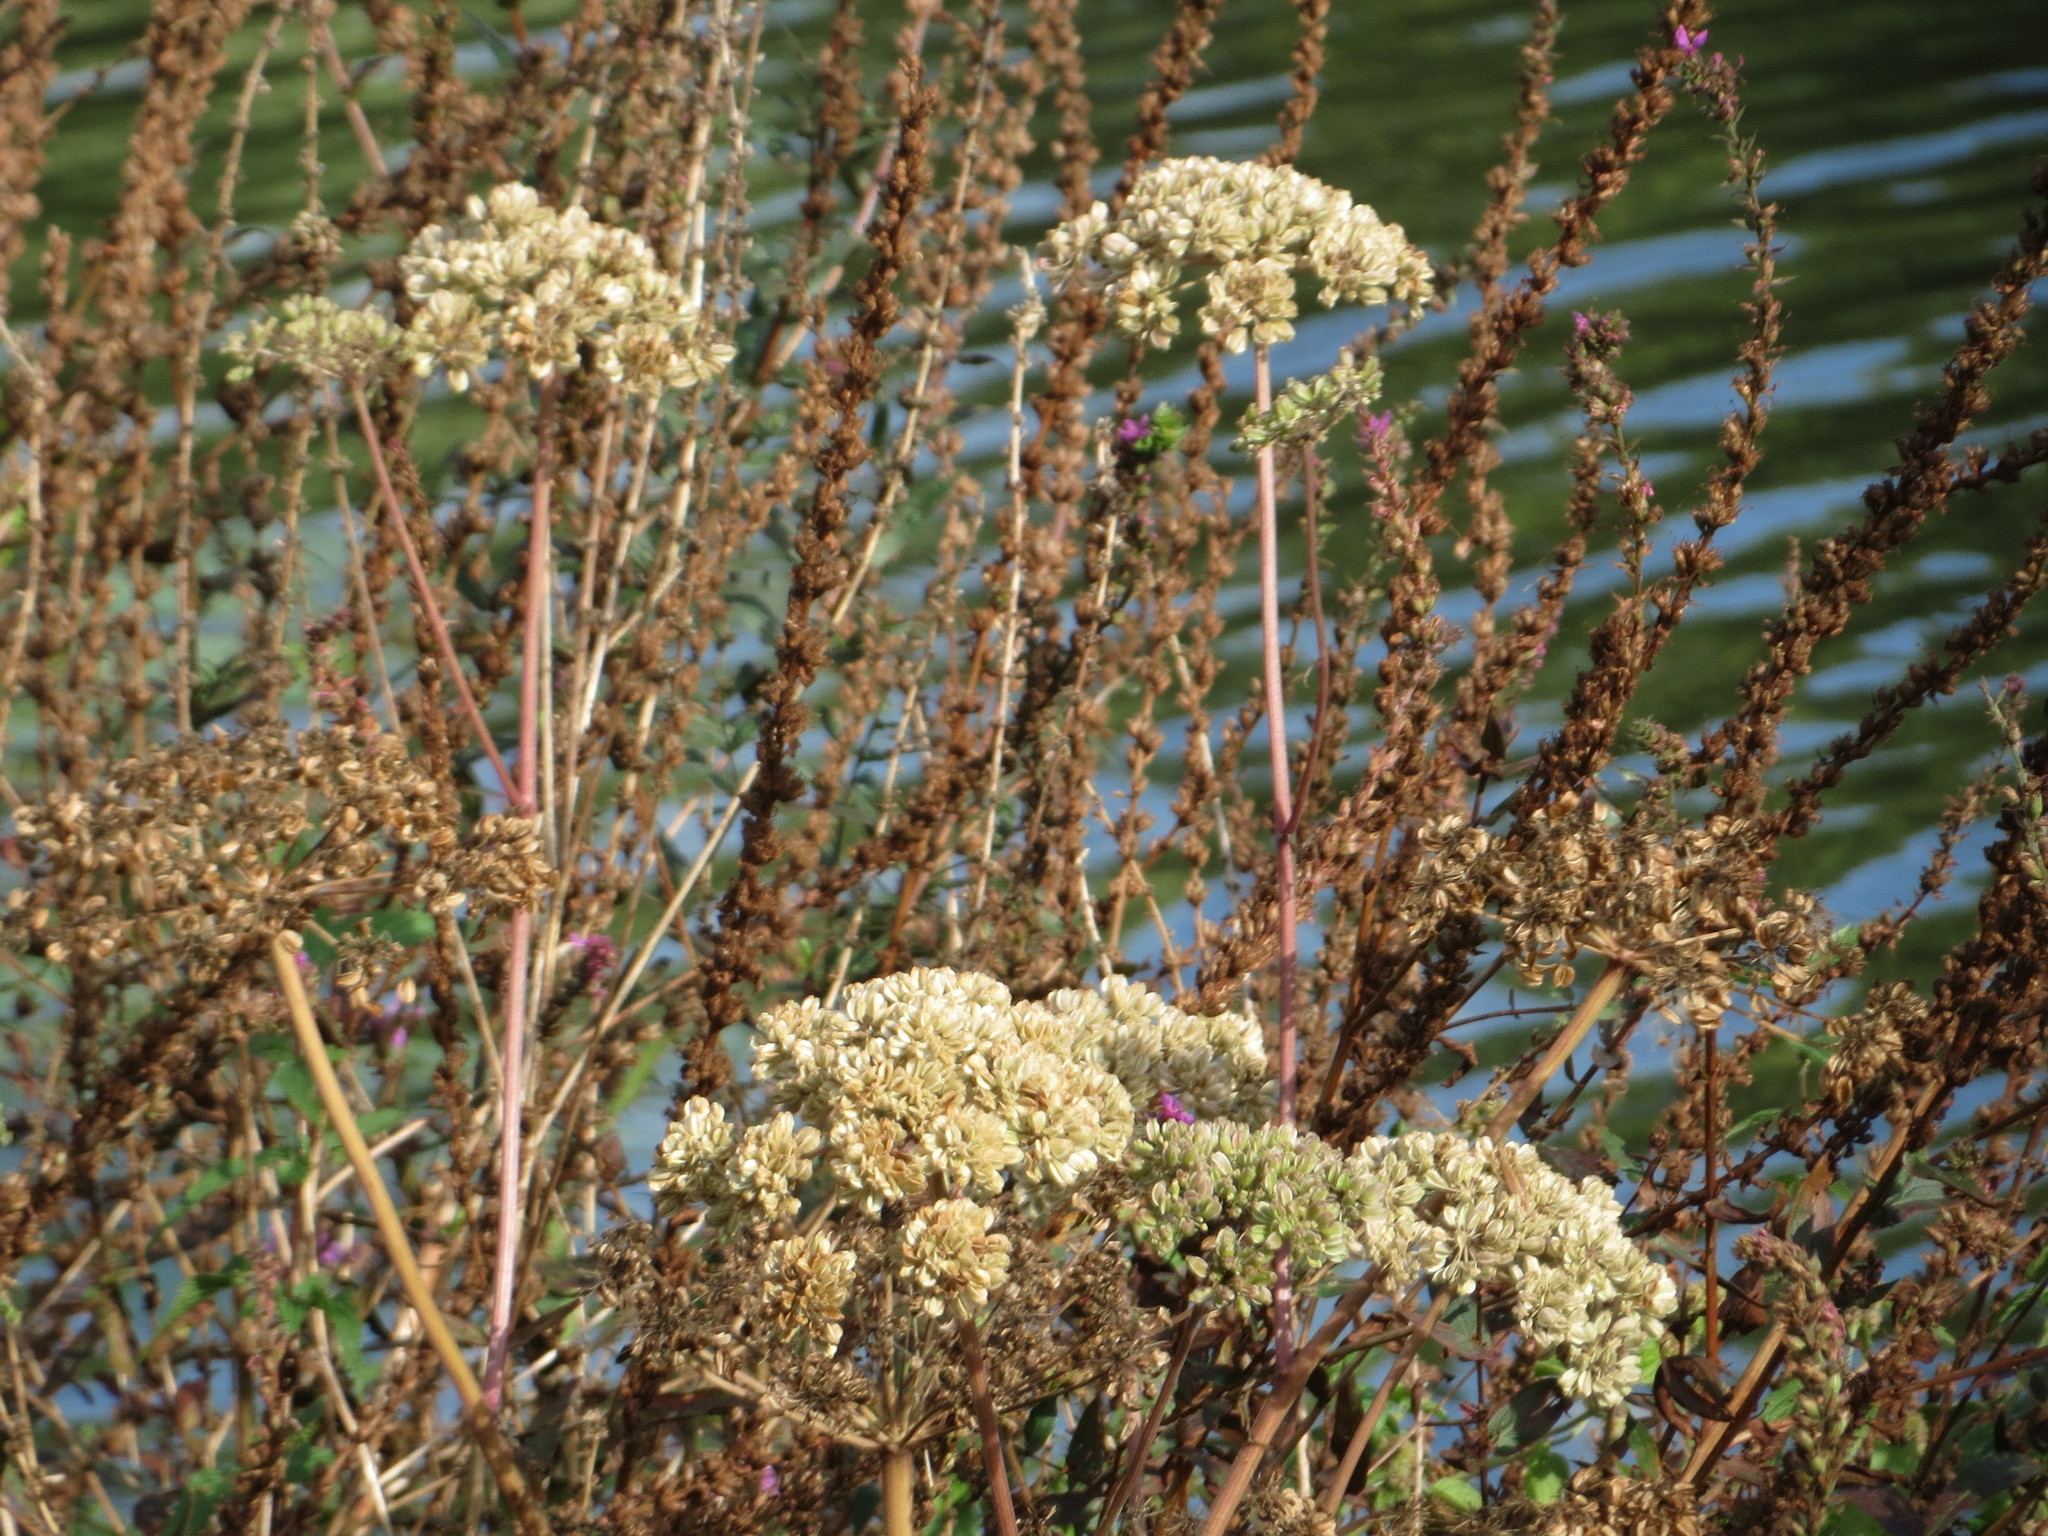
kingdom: Plantae
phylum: Tracheophyta
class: Magnoliopsida
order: Apiales
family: Apiaceae
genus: Angelica
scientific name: Angelica sylvestris
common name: Wild angelica
